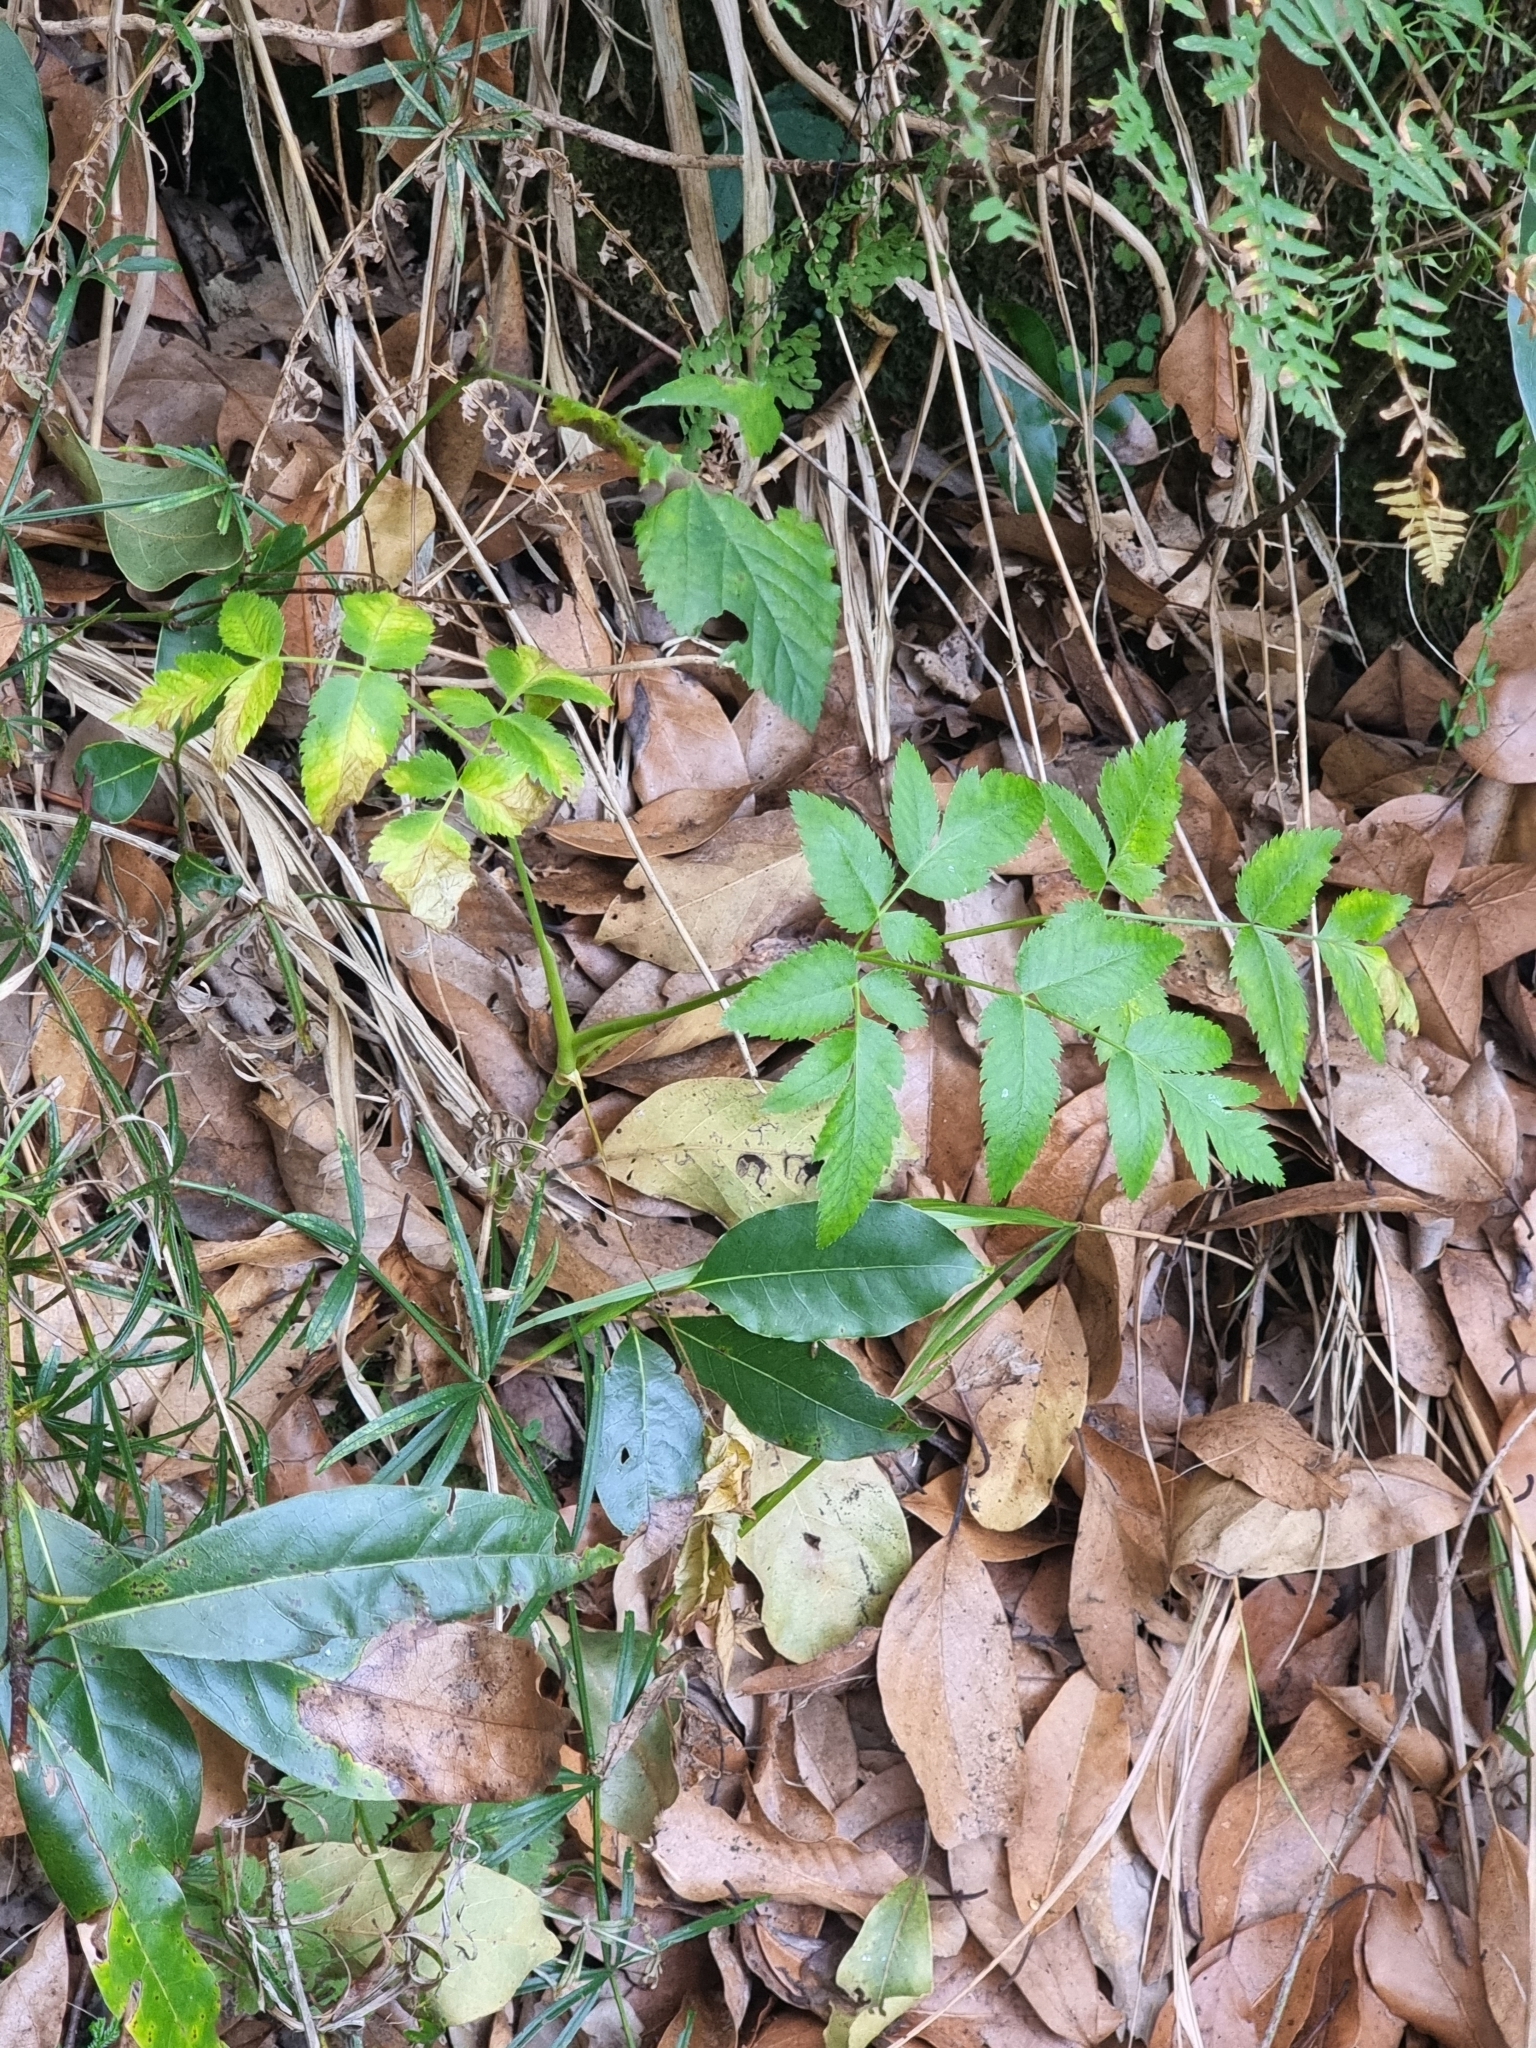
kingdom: Plantae
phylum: Tracheophyta
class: Magnoliopsida
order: Apiales
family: Apiaceae
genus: Daucus
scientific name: Daucus decipiens
